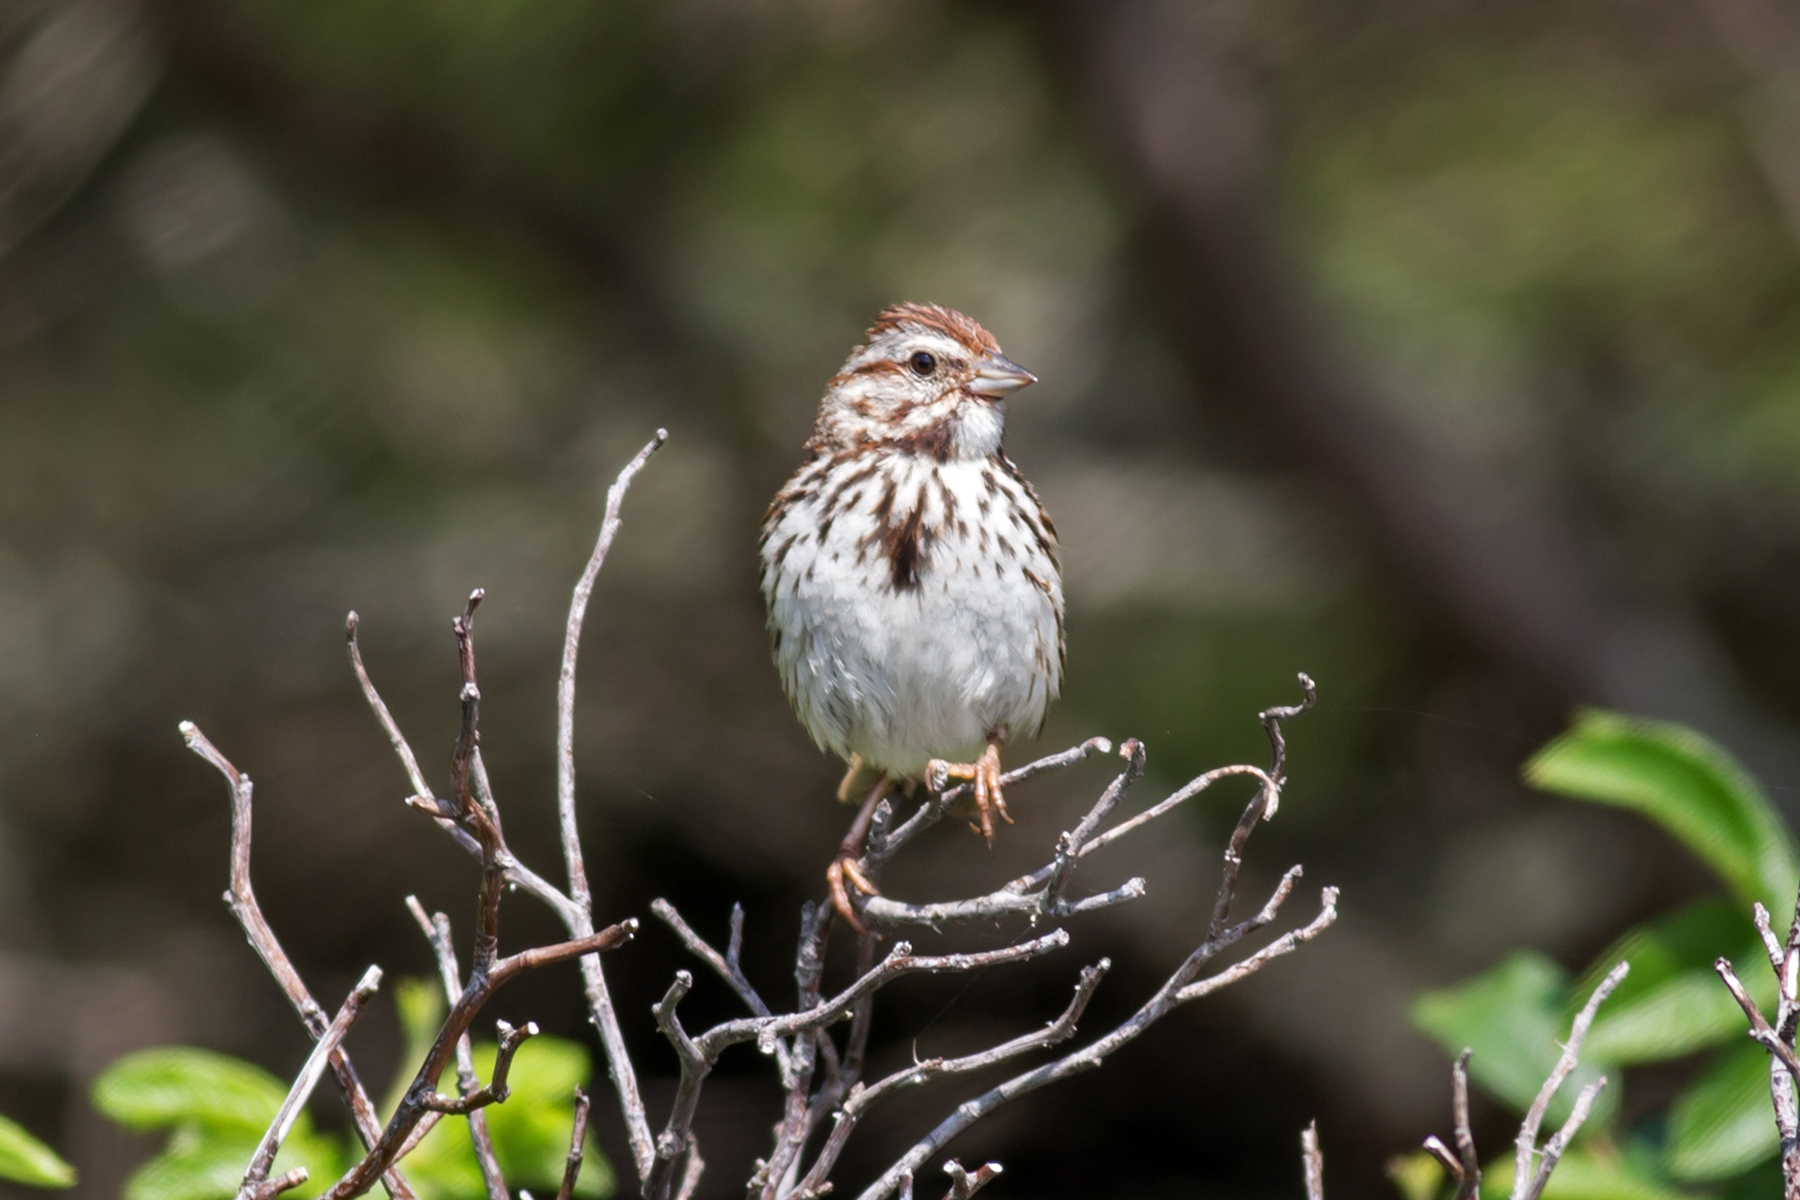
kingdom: Animalia
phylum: Chordata
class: Aves
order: Passeriformes
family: Passerellidae
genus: Melospiza
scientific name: Melospiza melodia
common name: Song sparrow
